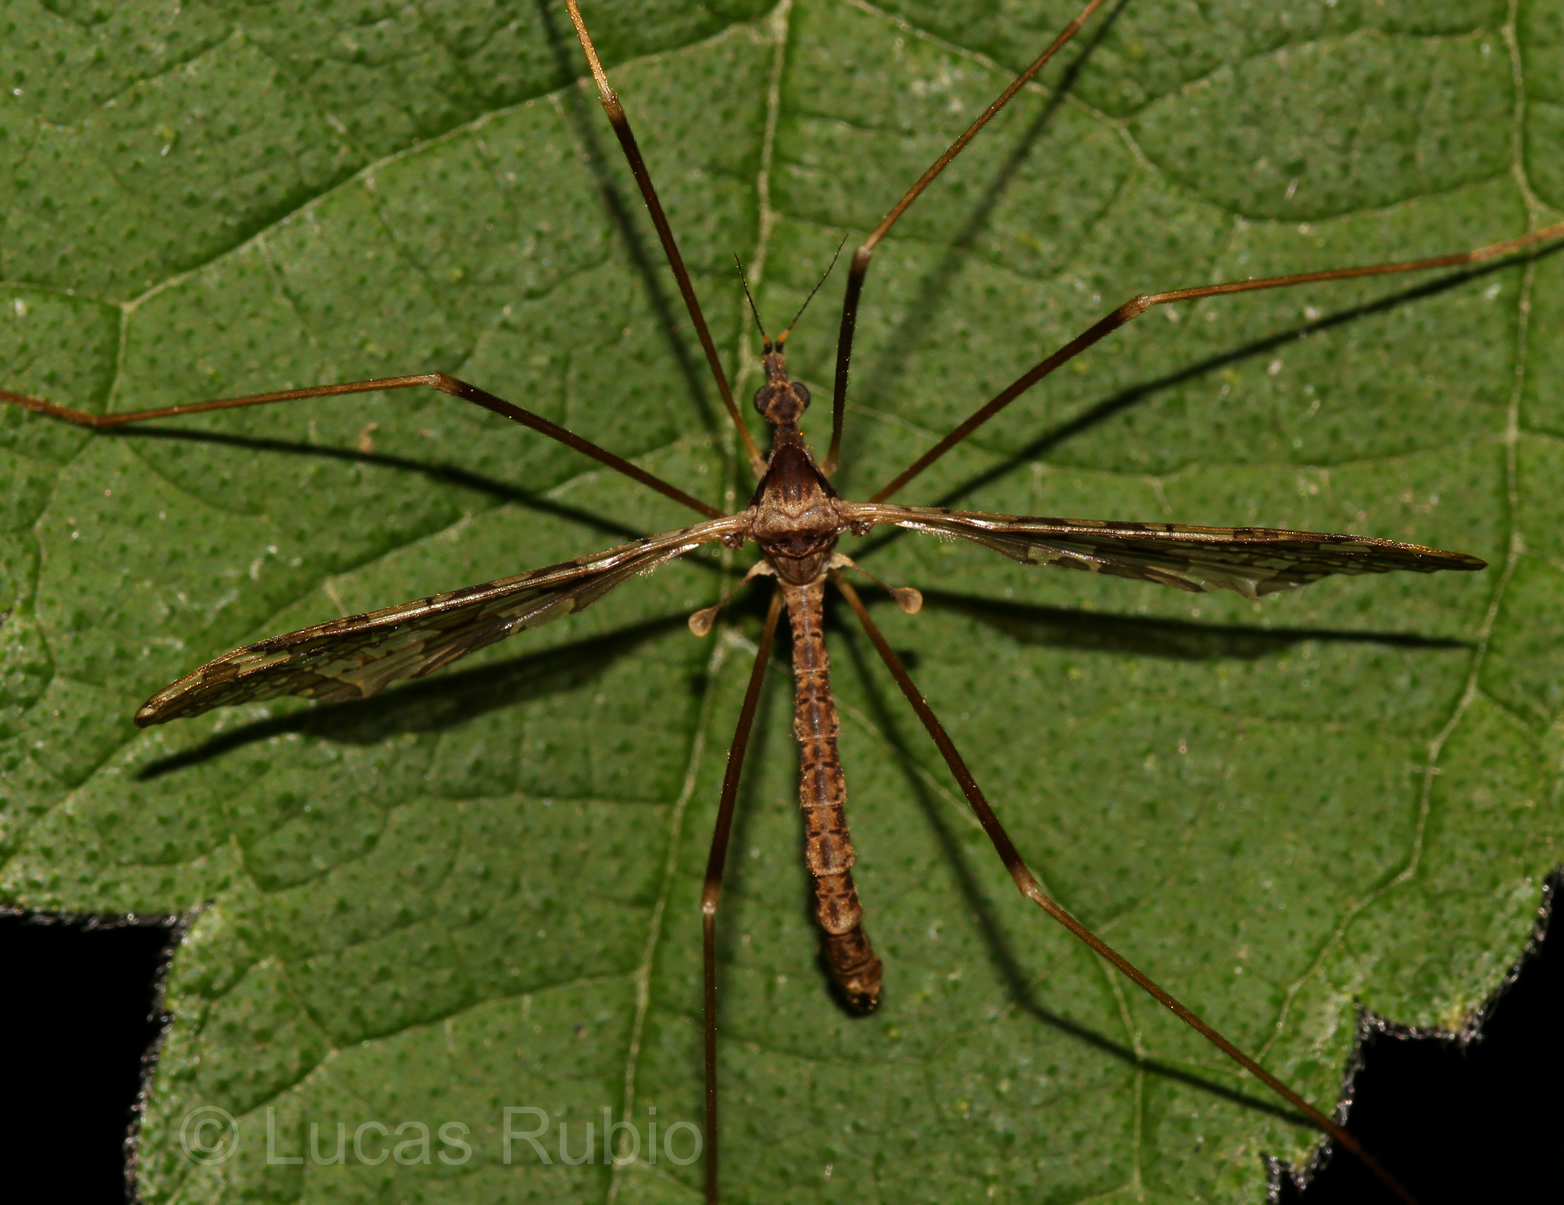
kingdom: Animalia
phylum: Arthropoda
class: Insecta
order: Diptera
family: Limoniidae
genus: Epiphragma
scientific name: Epiphragma imitans
